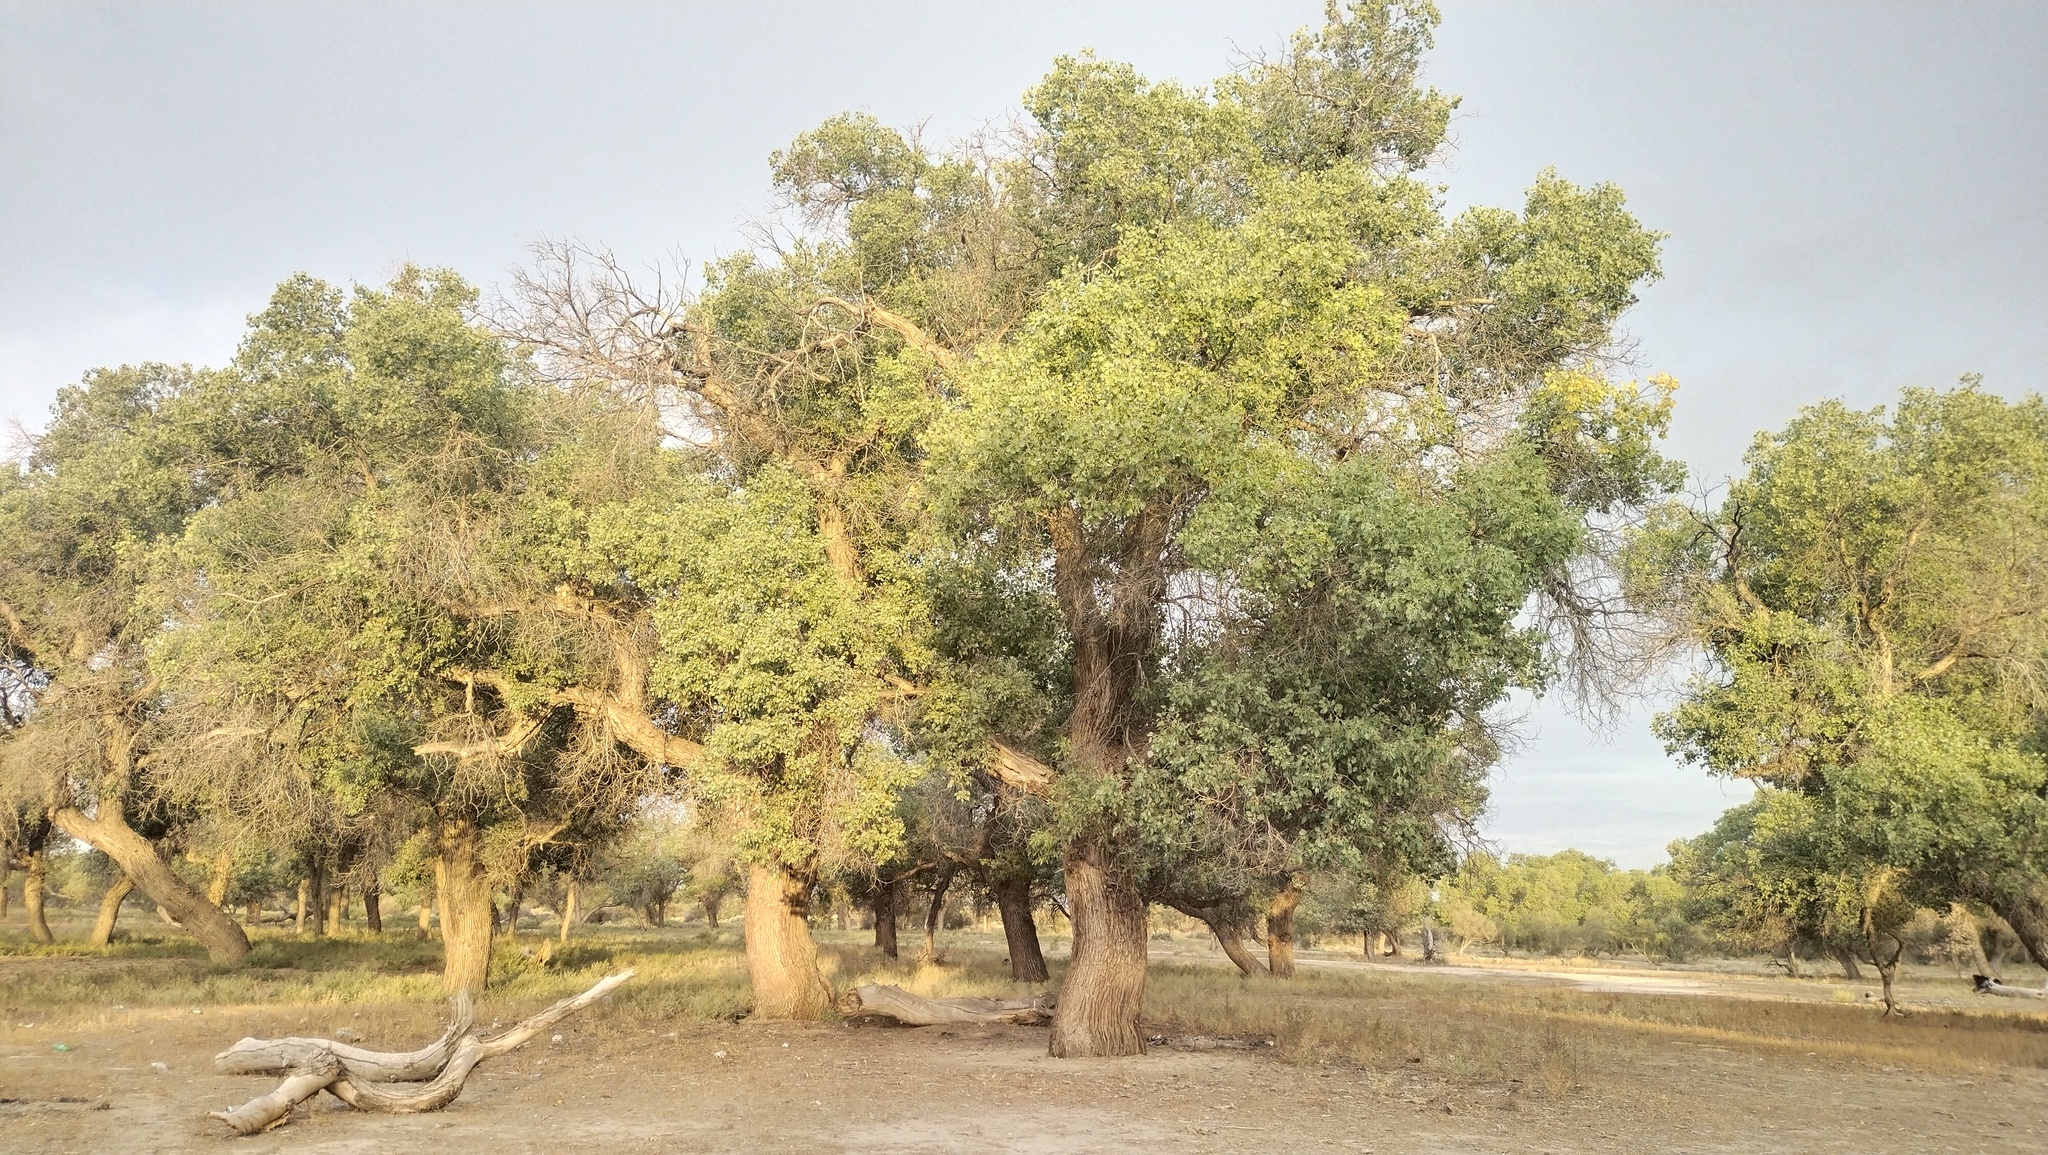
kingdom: Plantae
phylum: Tracheophyta
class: Magnoliopsida
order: Malpighiales
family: Salicaceae
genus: Populus
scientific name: Populus euphratica
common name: Euphrates poplar
